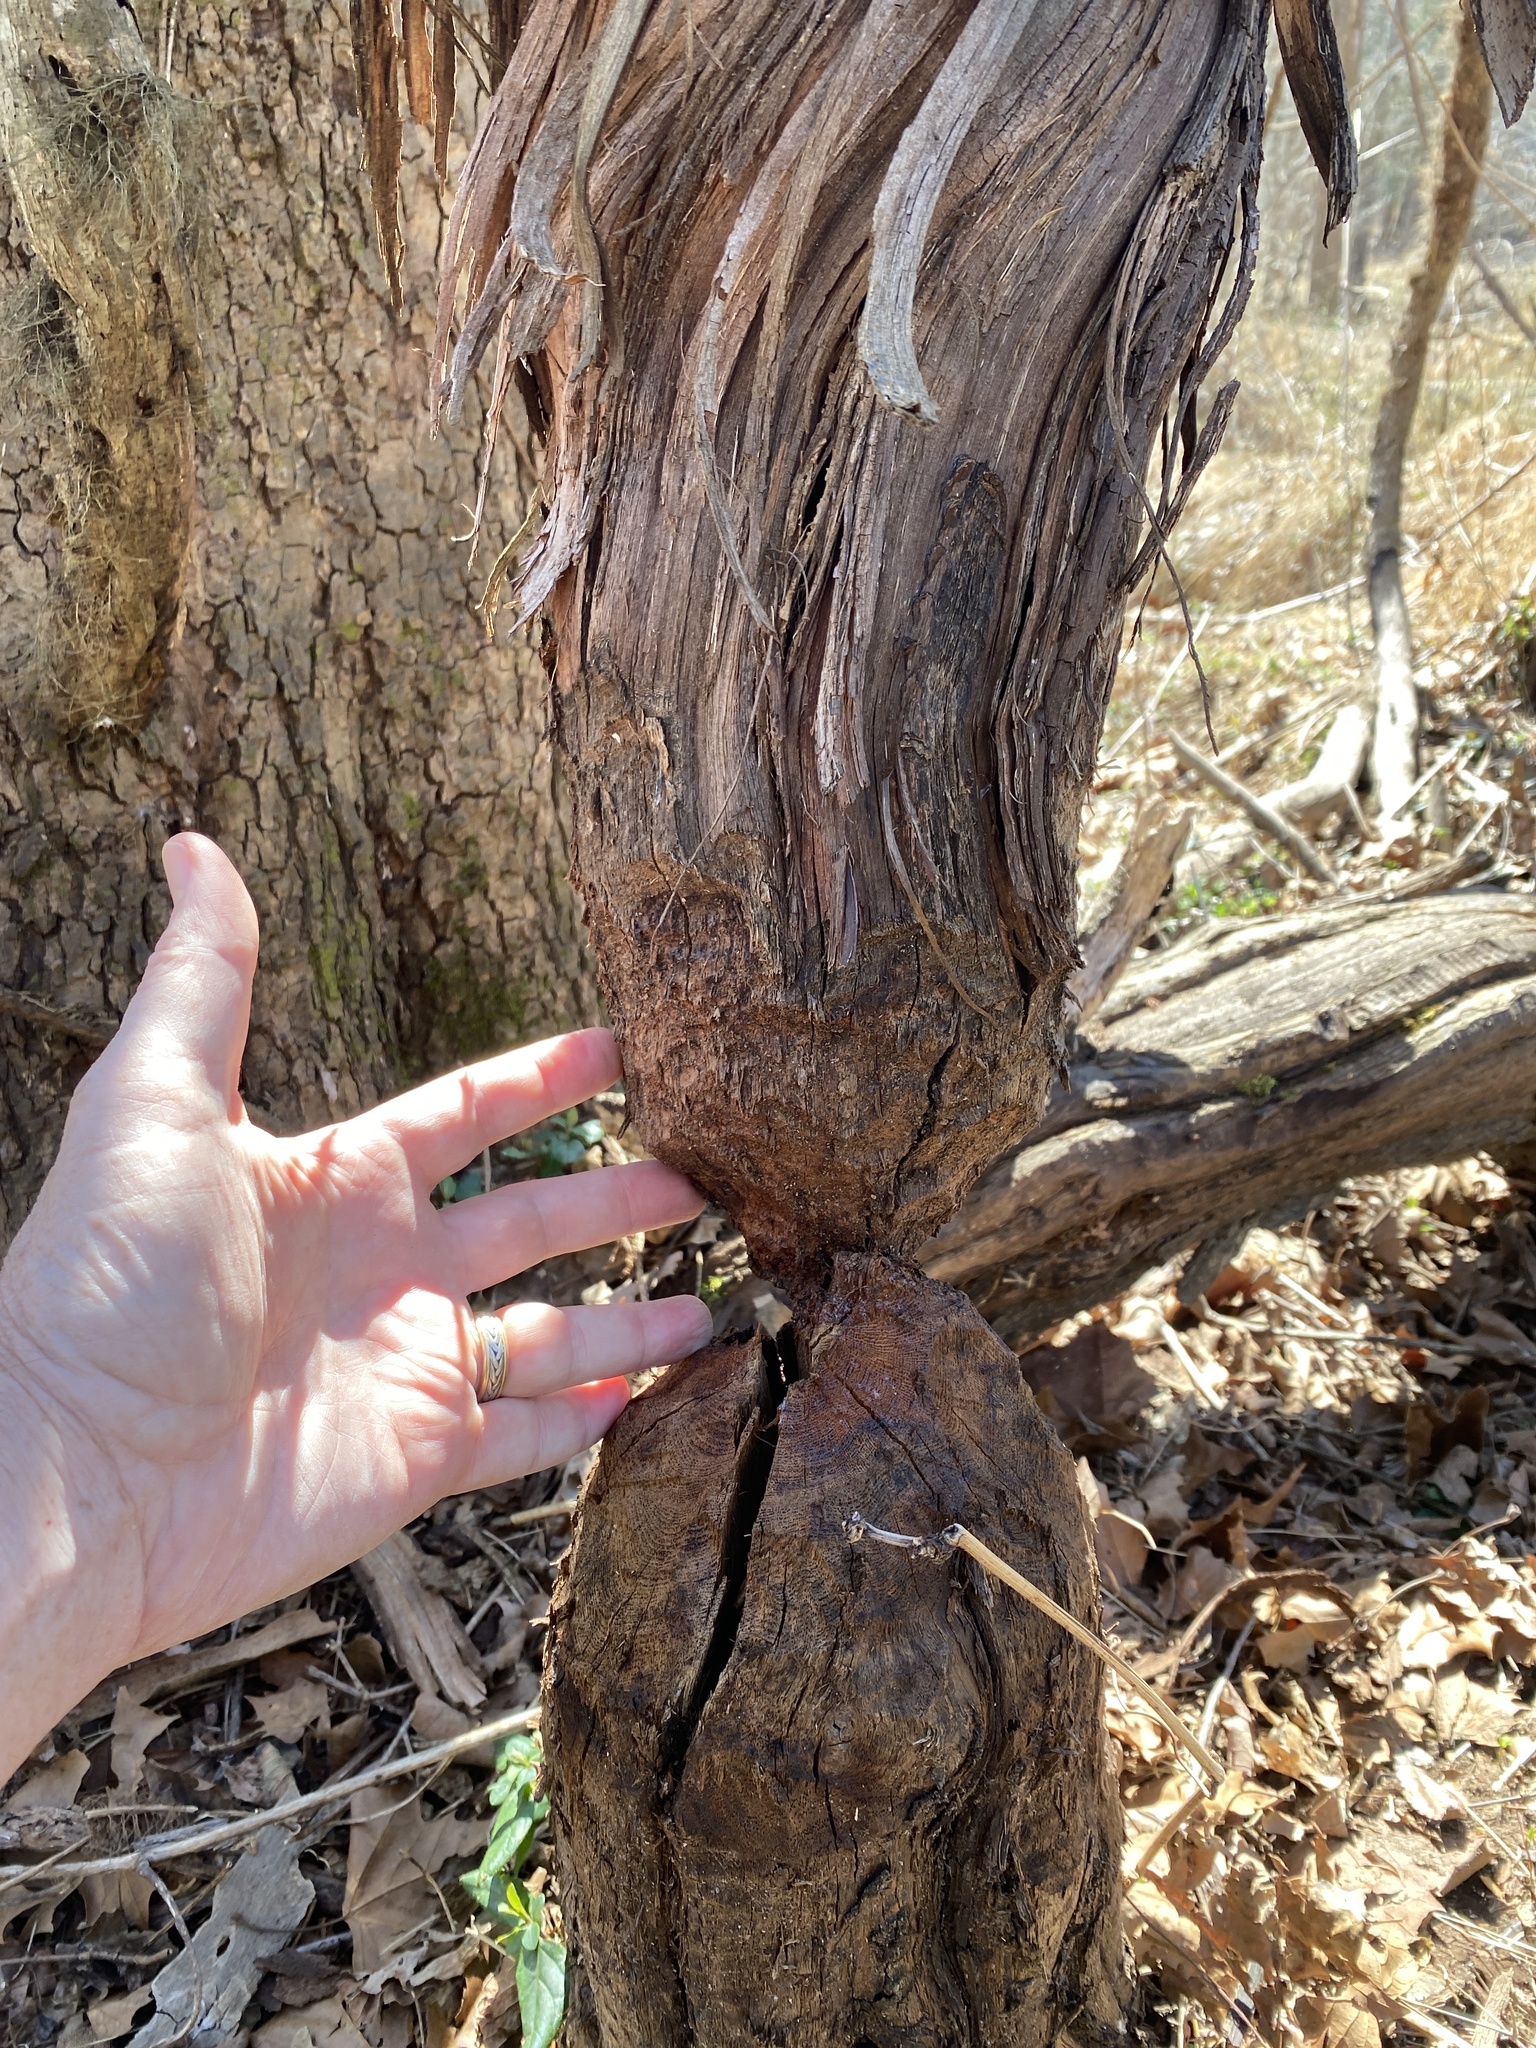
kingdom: Animalia
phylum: Chordata
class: Mammalia
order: Rodentia
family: Castoridae
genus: Castor
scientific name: Castor canadensis
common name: American beaver
